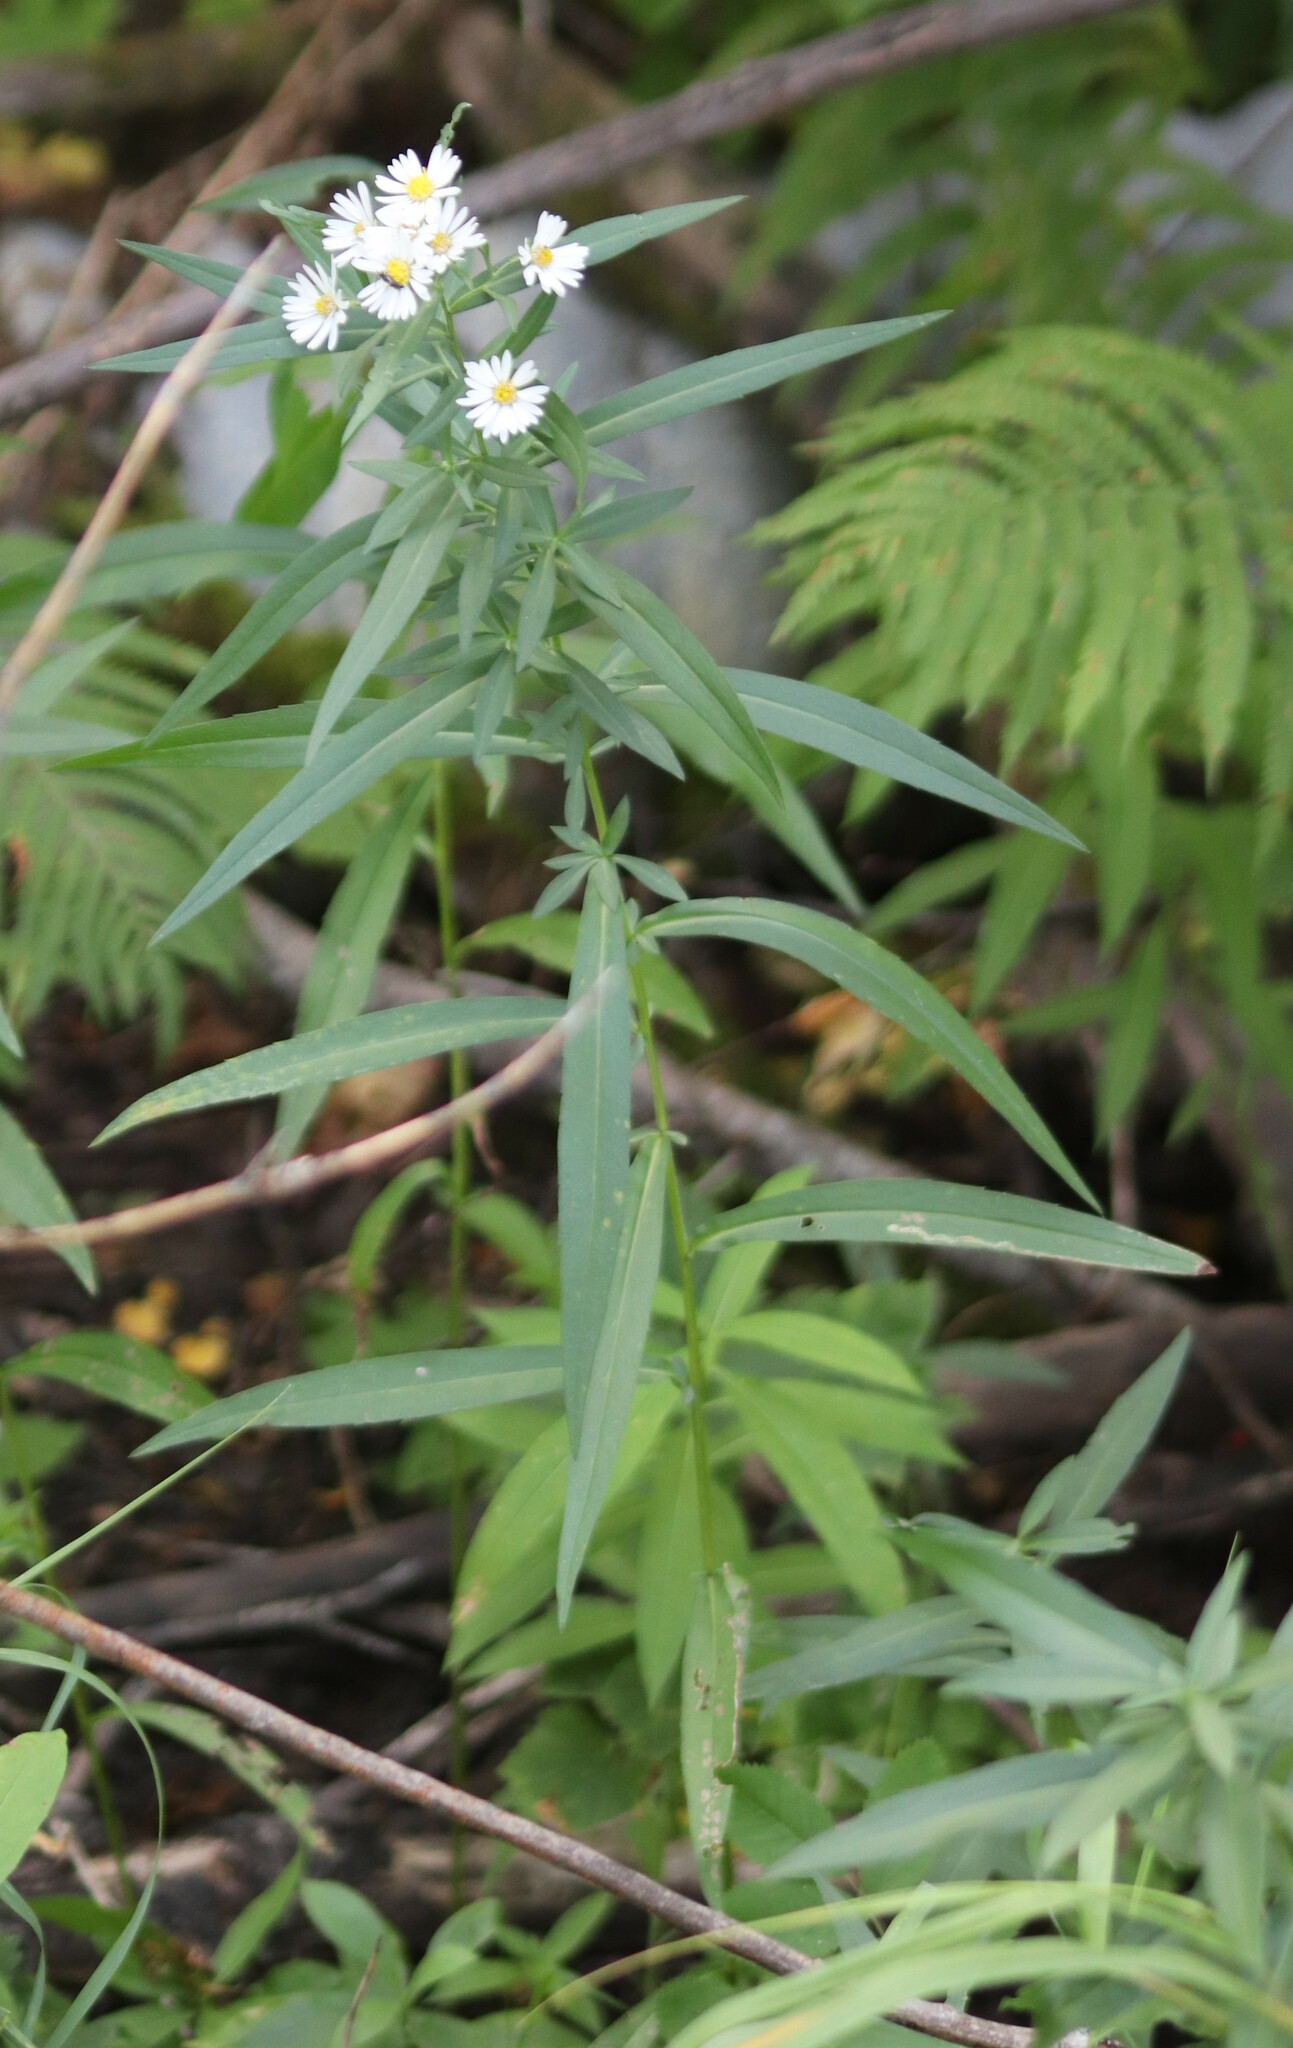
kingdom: Plantae
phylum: Tracheophyta
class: Magnoliopsida
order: Asterales
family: Asteraceae
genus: Symphyotrichum
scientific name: Symphyotrichum lanceolatum
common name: Panicled aster
